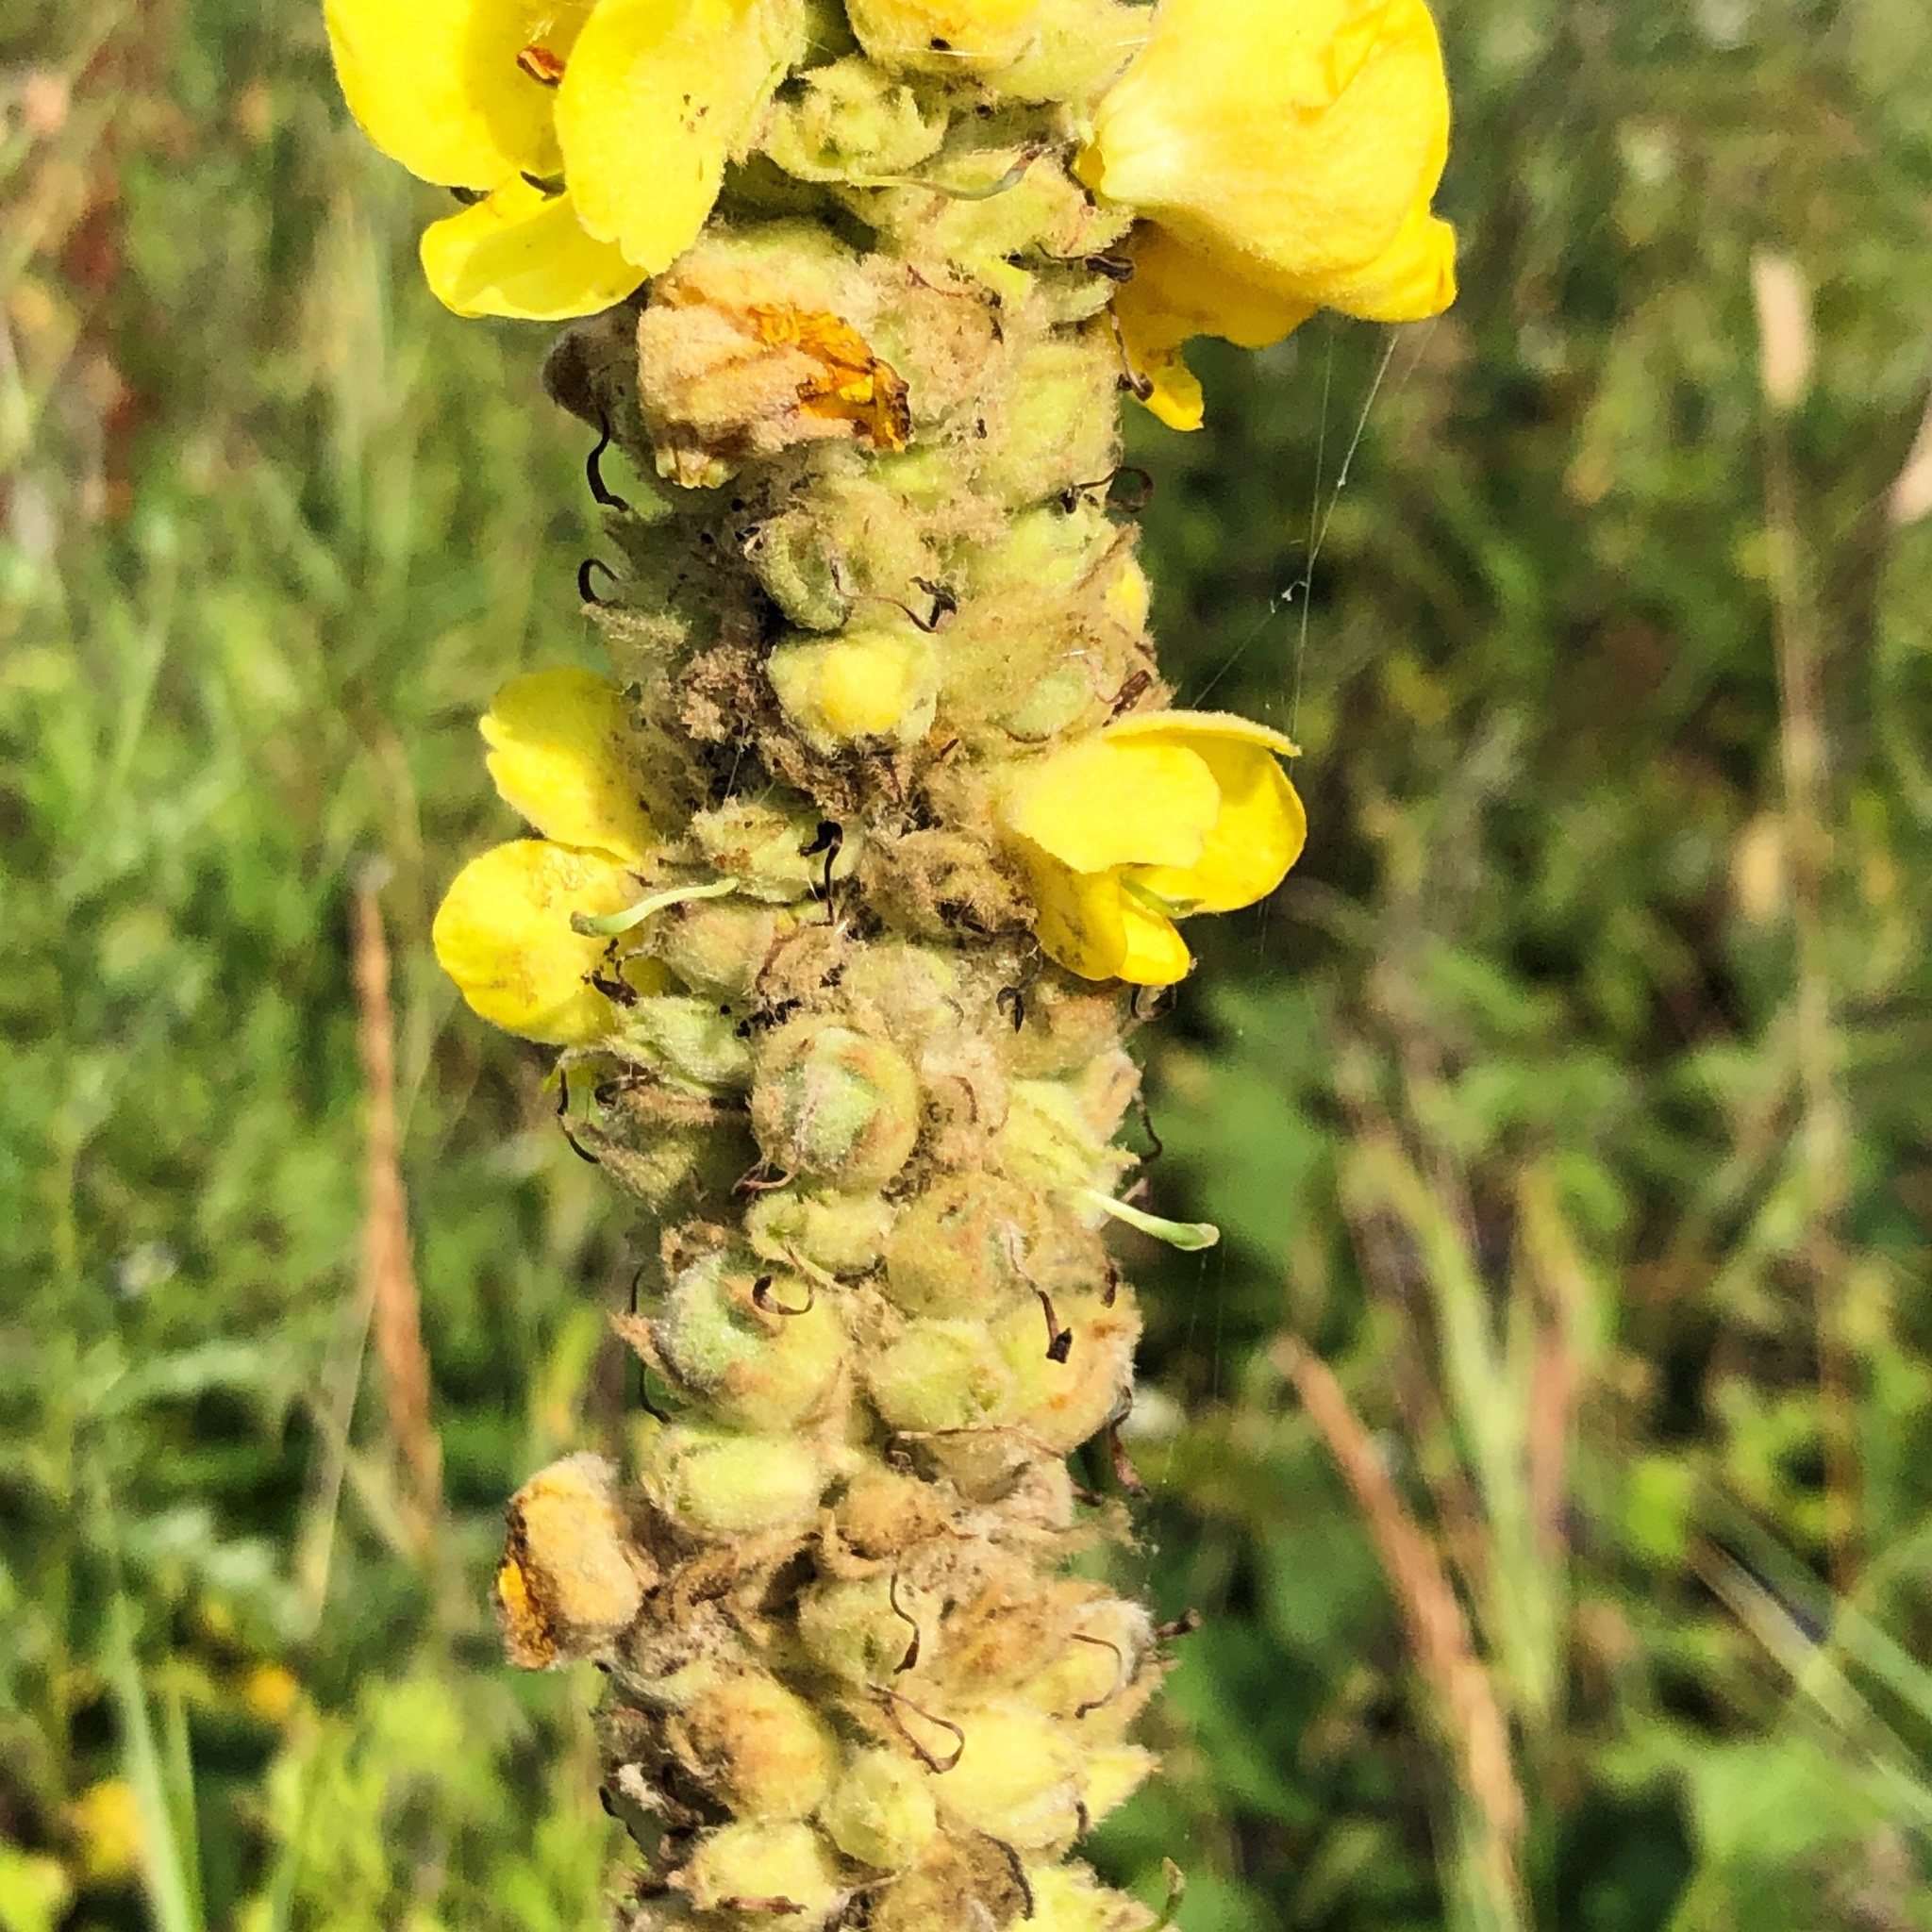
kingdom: Plantae
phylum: Tracheophyta
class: Magnoliopsida
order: Lamiales
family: Scrophulariaceae
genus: Verbascum
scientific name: Verbascum thapsus
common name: Common mullein
